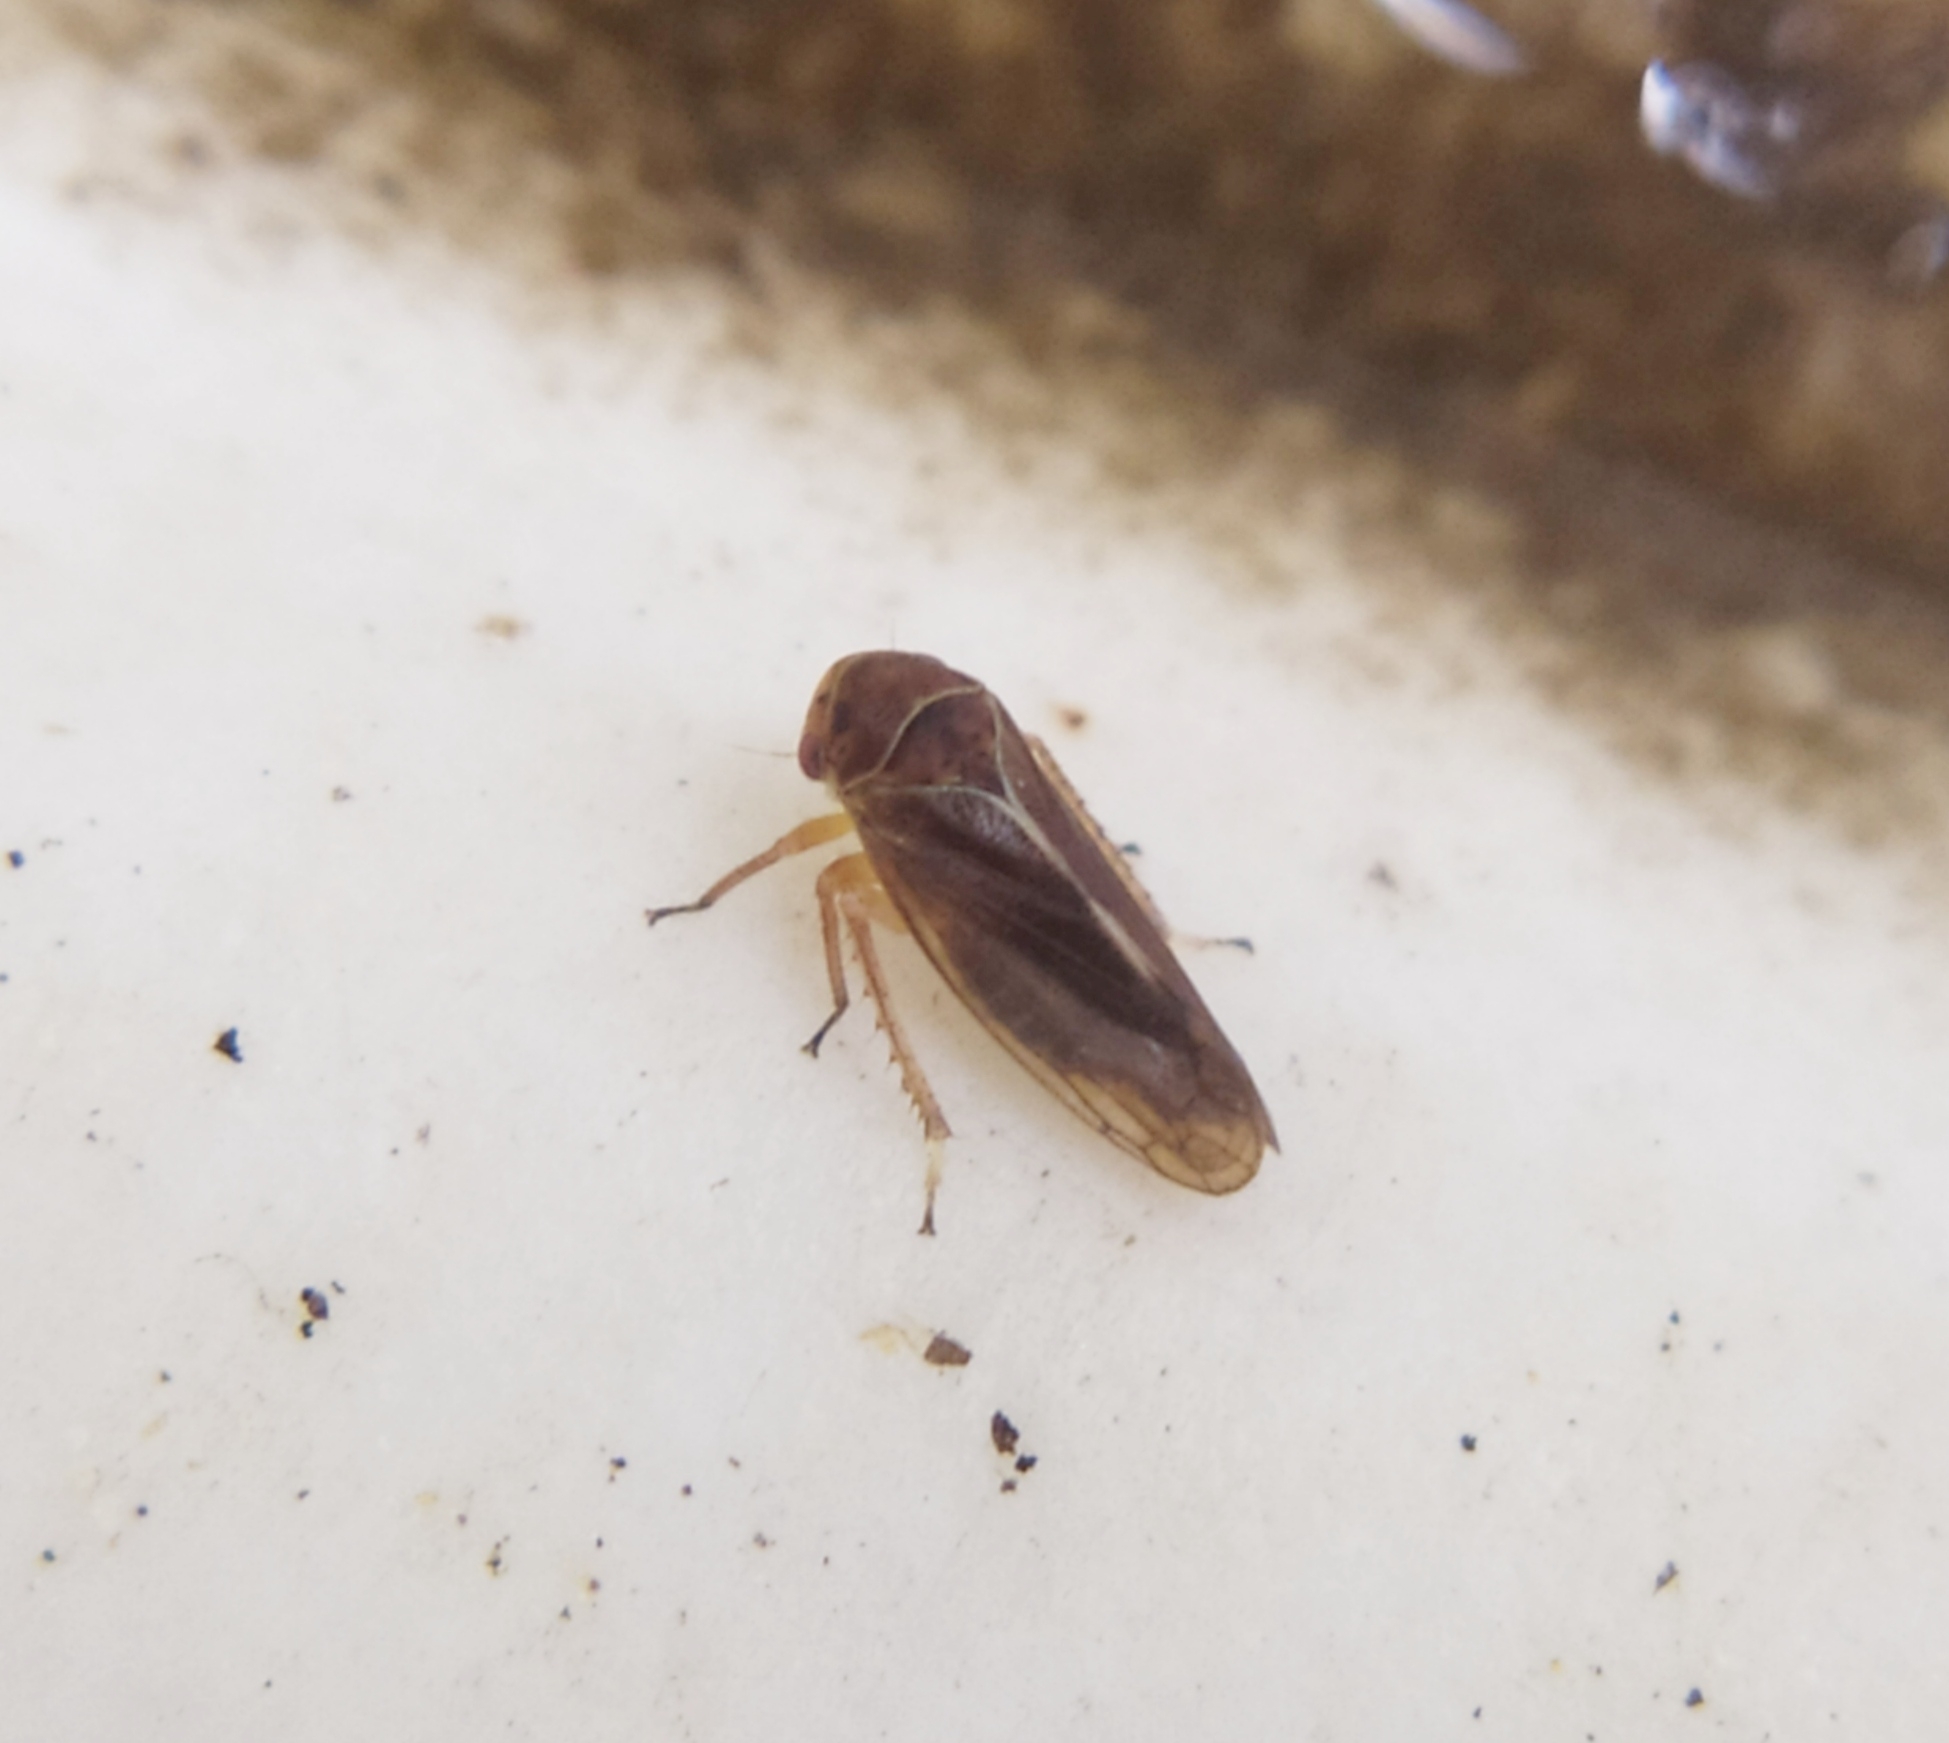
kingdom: Animalia
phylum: Arthropoda
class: Insecta
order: Hemiptera
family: Cicadellidae
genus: Oncopsis
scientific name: Oncopsis flavicollis
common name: Leafhopper
